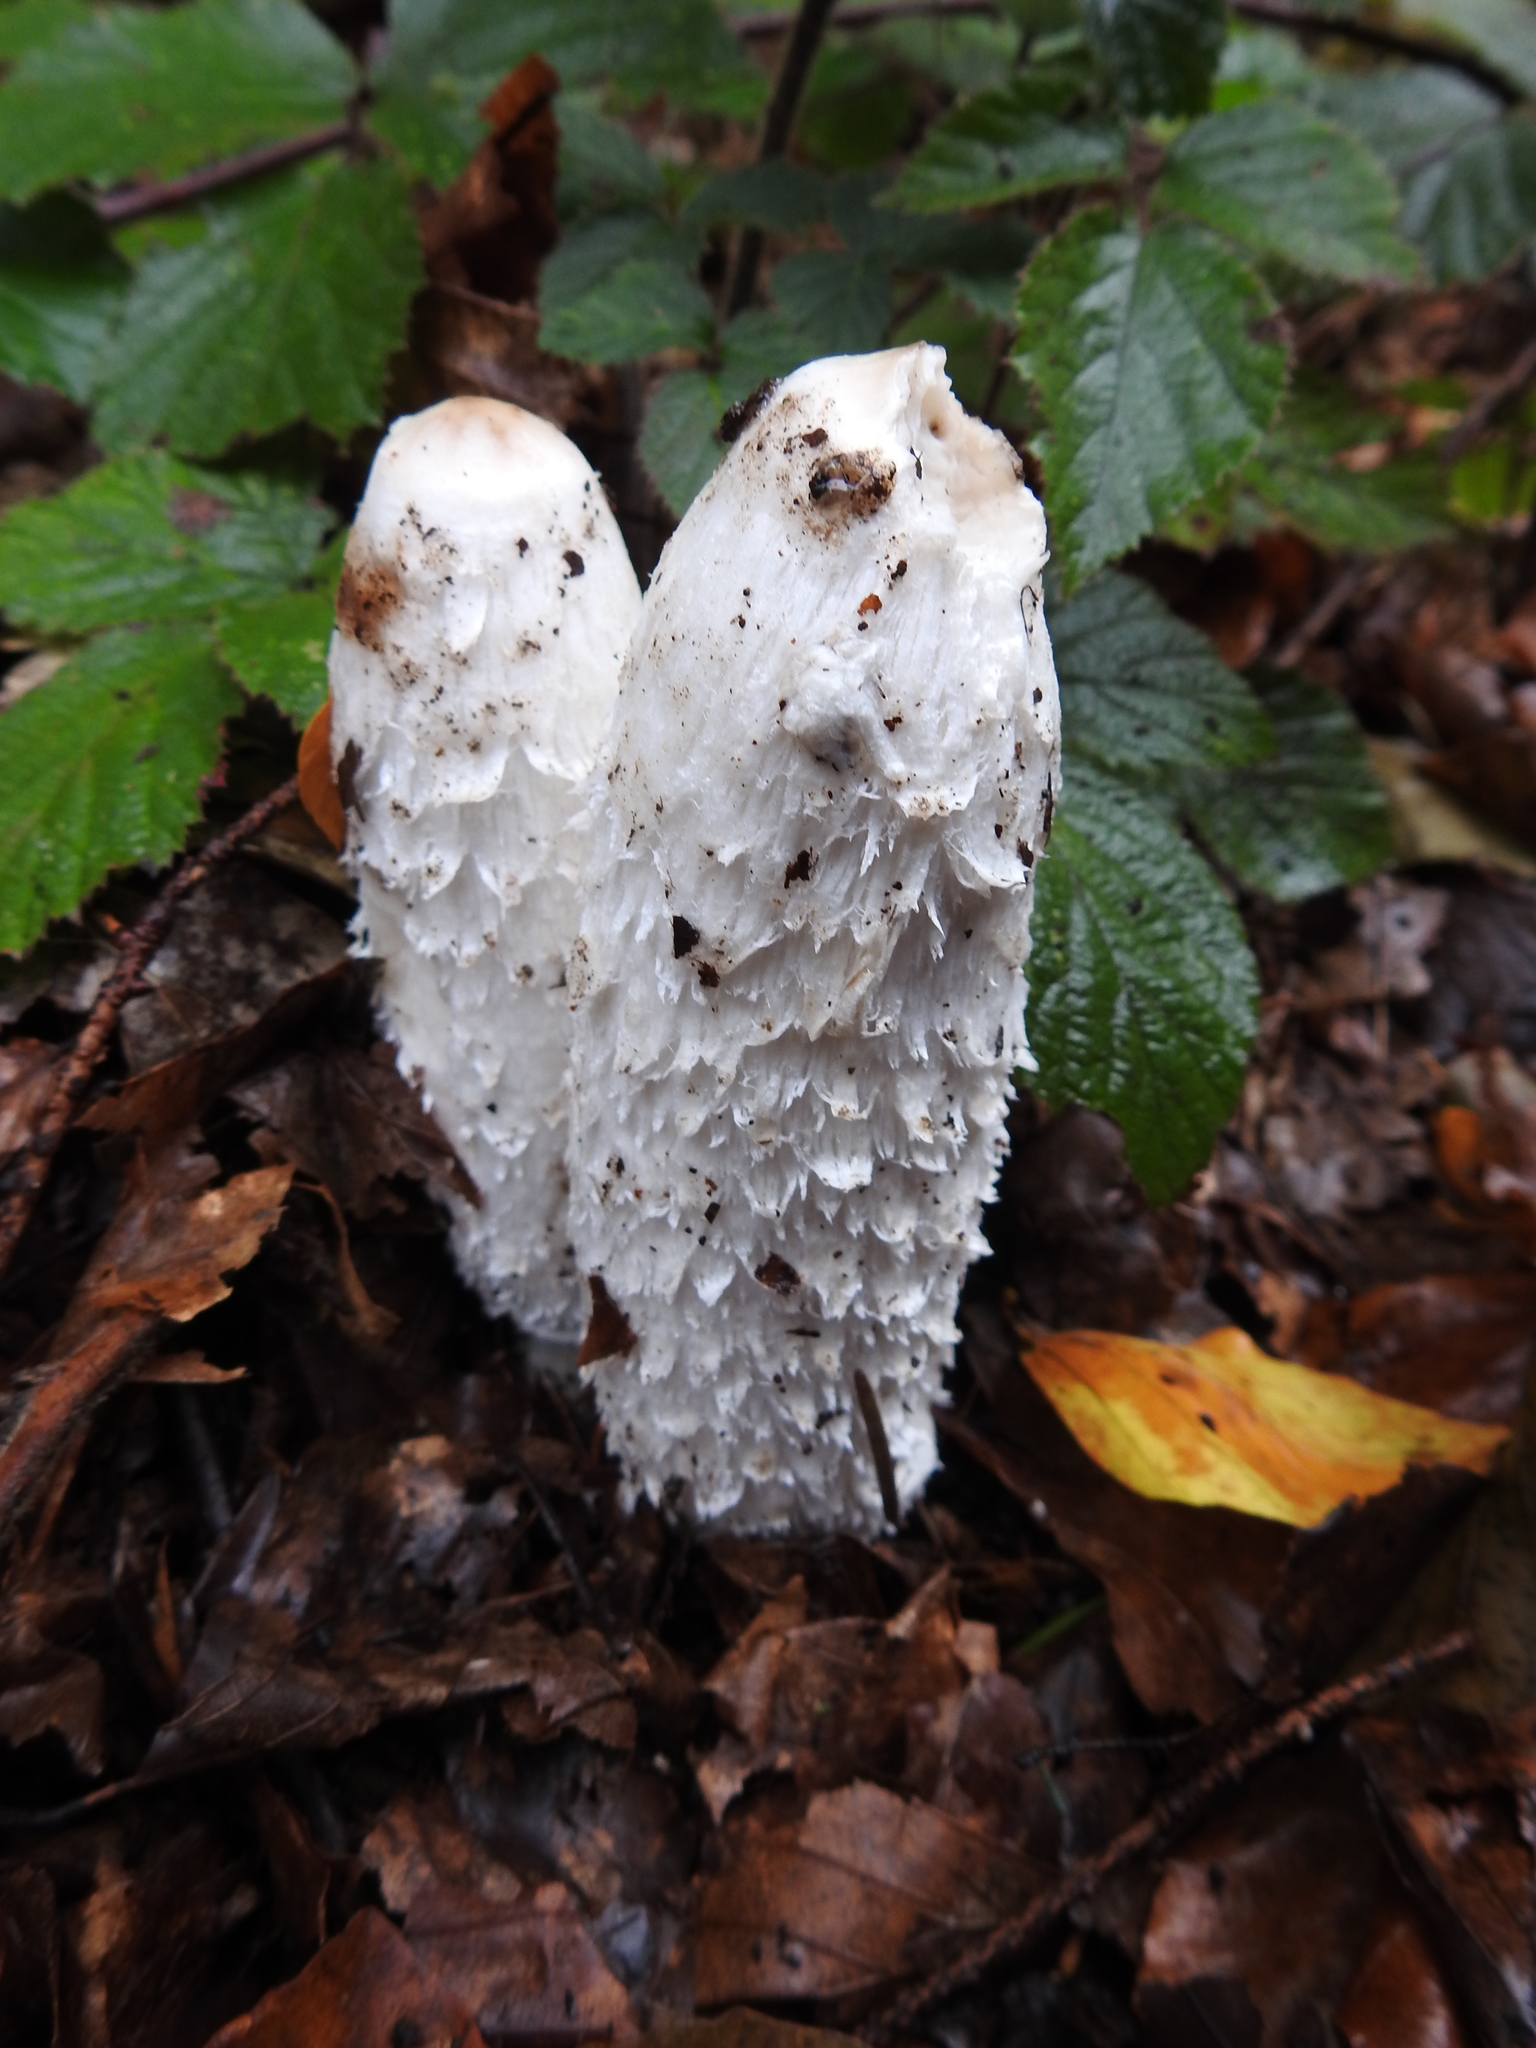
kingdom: Fungi
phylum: Basidiomycota
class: Agaricomycetes
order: Agaricales
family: Agaricaceae
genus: Coprinus
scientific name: Coprinus comatus
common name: Lawyer's wig
